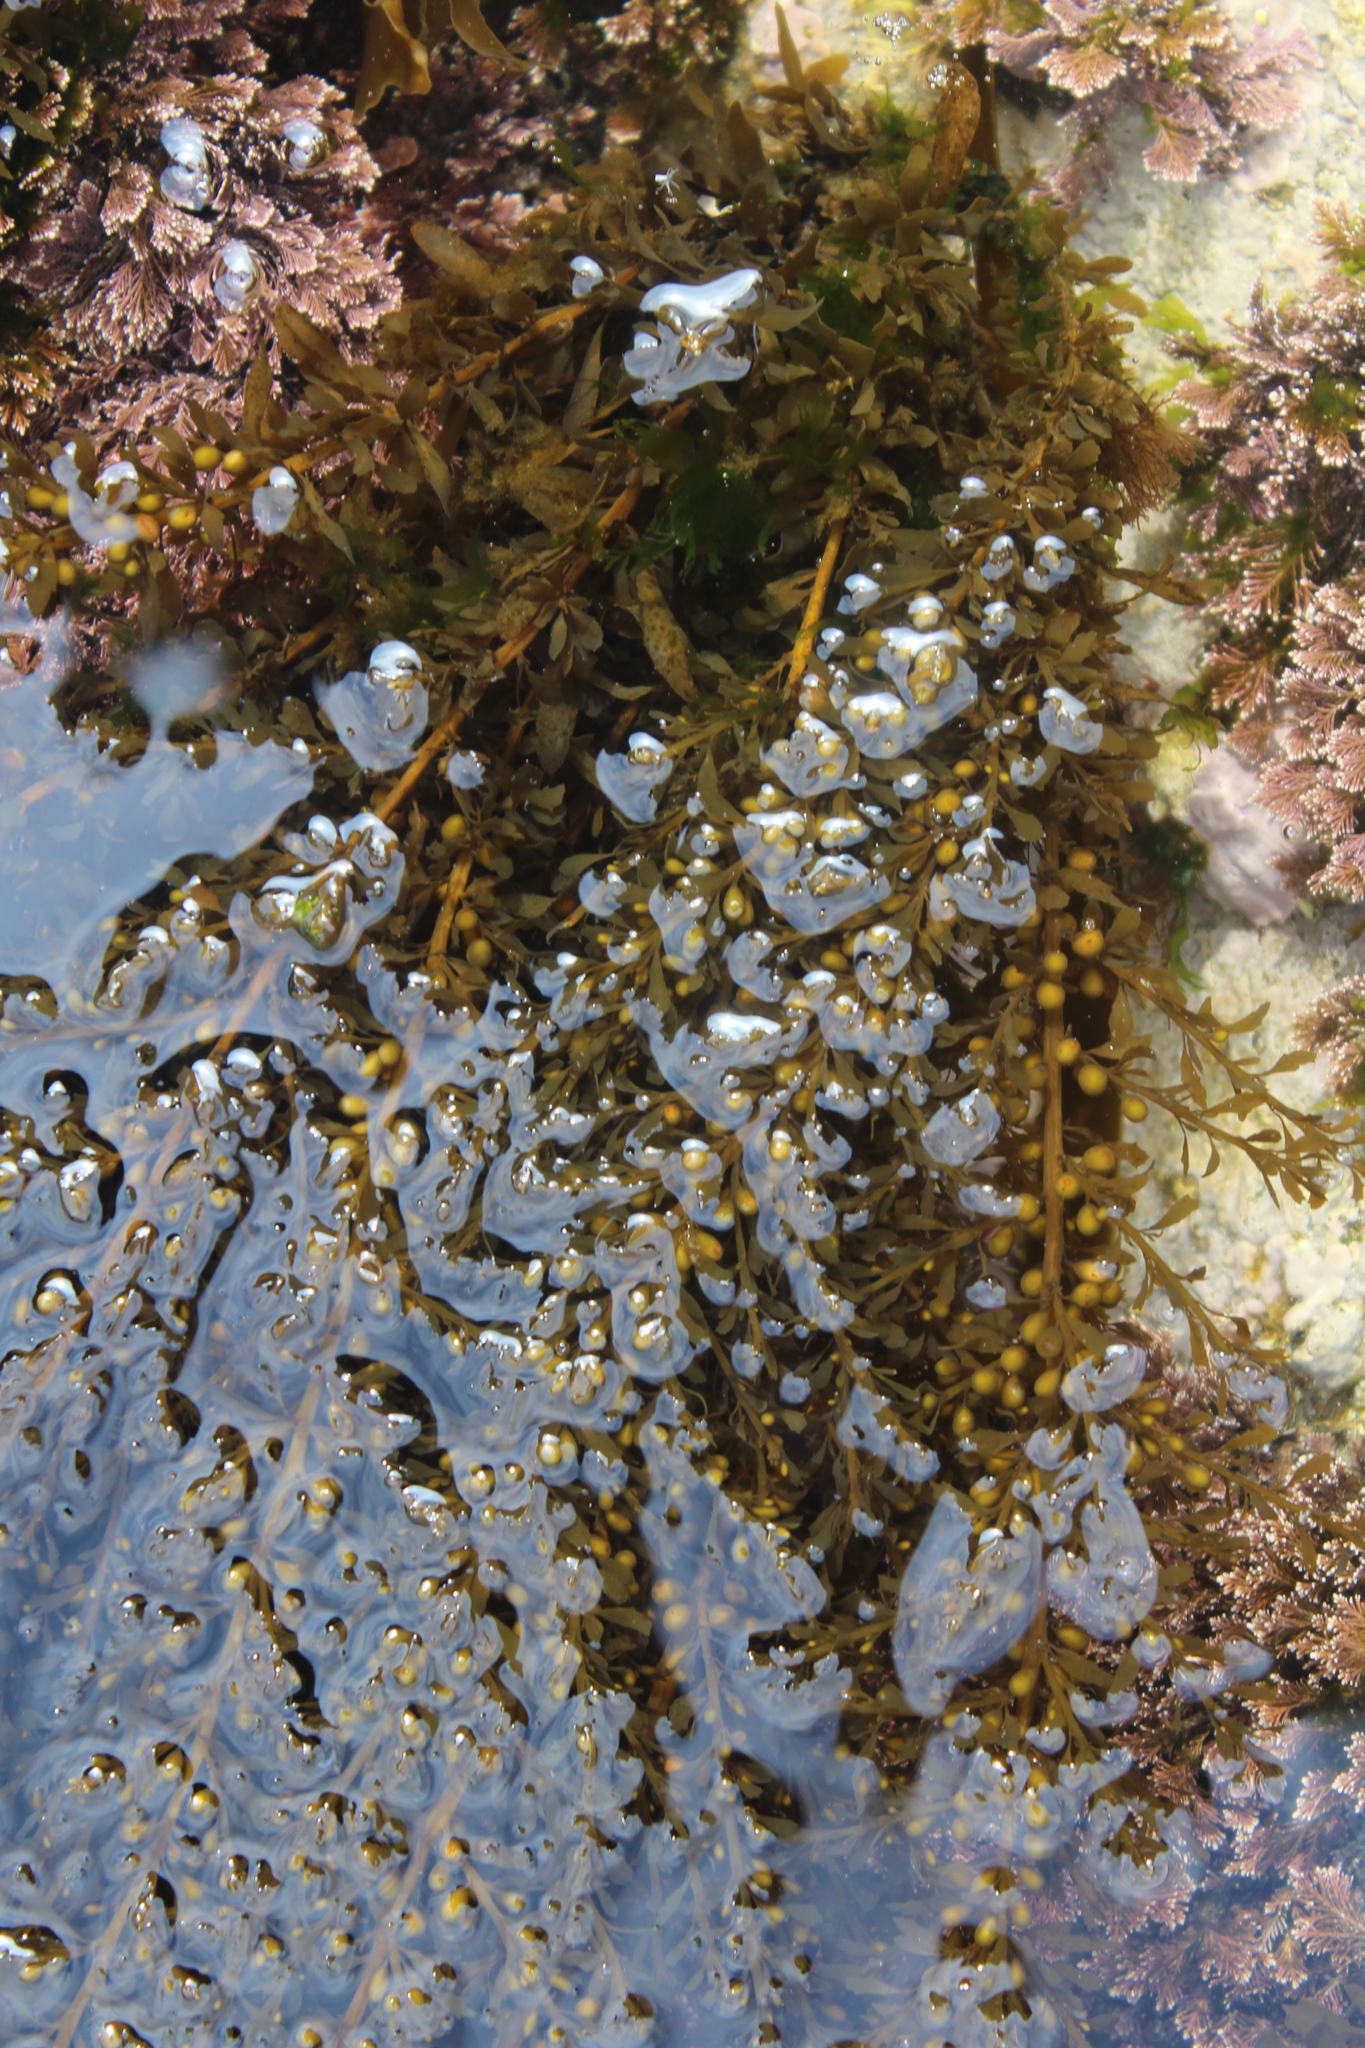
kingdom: Chromista
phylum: Ochrophyta
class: Phaeophyceae
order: Fucales
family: Sargassaceae
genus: Sargassum
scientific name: Sargassum muticum
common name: Japweed
